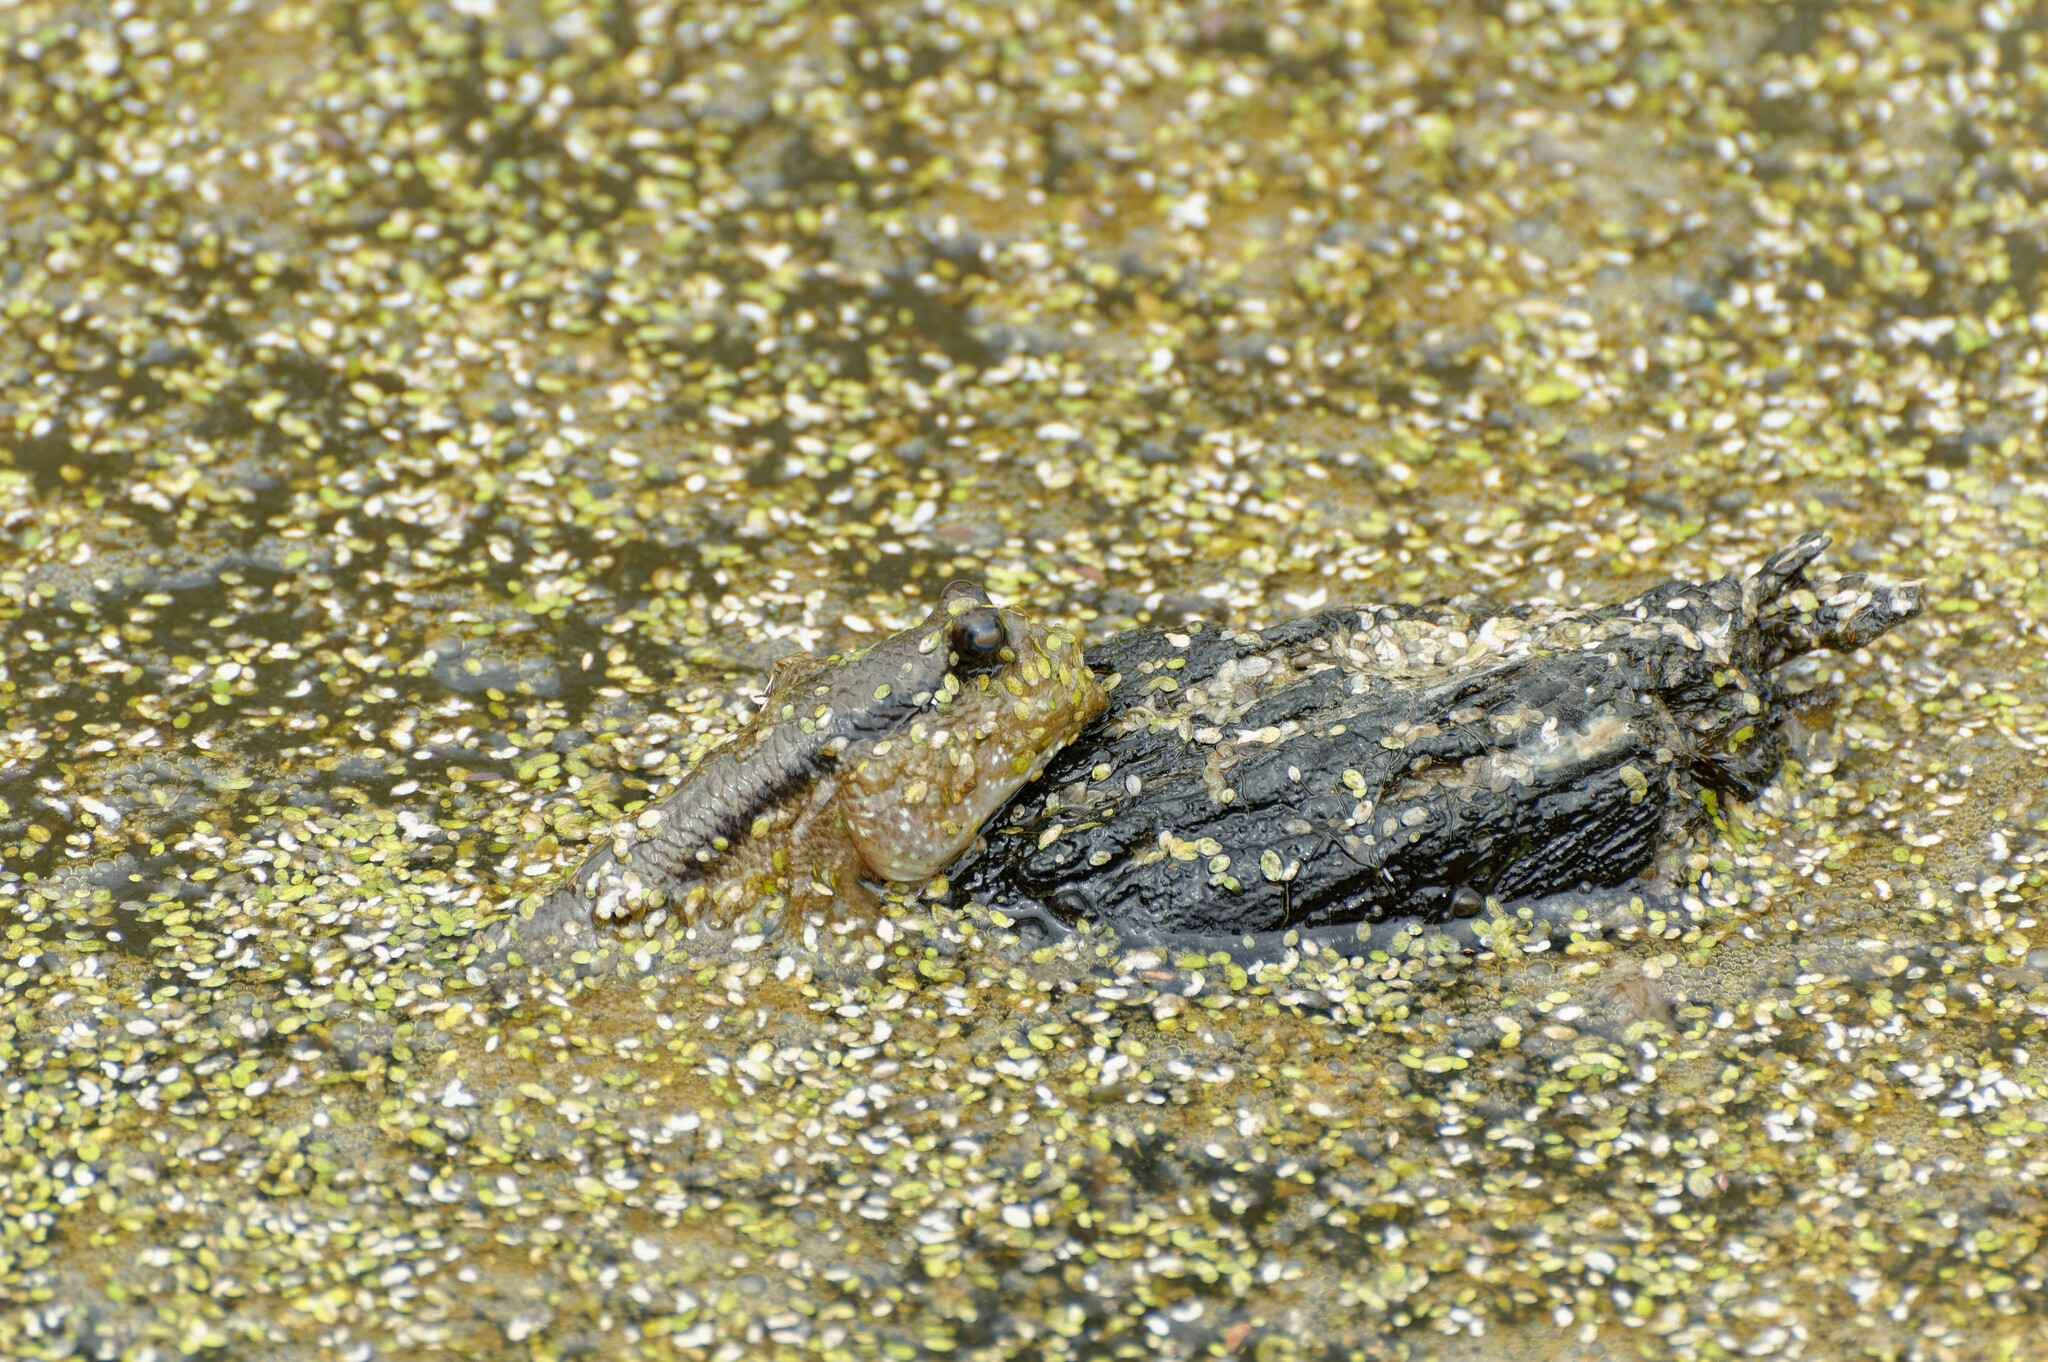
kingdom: Animalia
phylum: Chordata
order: Perciformes
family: Gobiidae
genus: Periophthalmodon
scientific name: Periophthalmodon schlosseri
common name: Giant mudskipper
